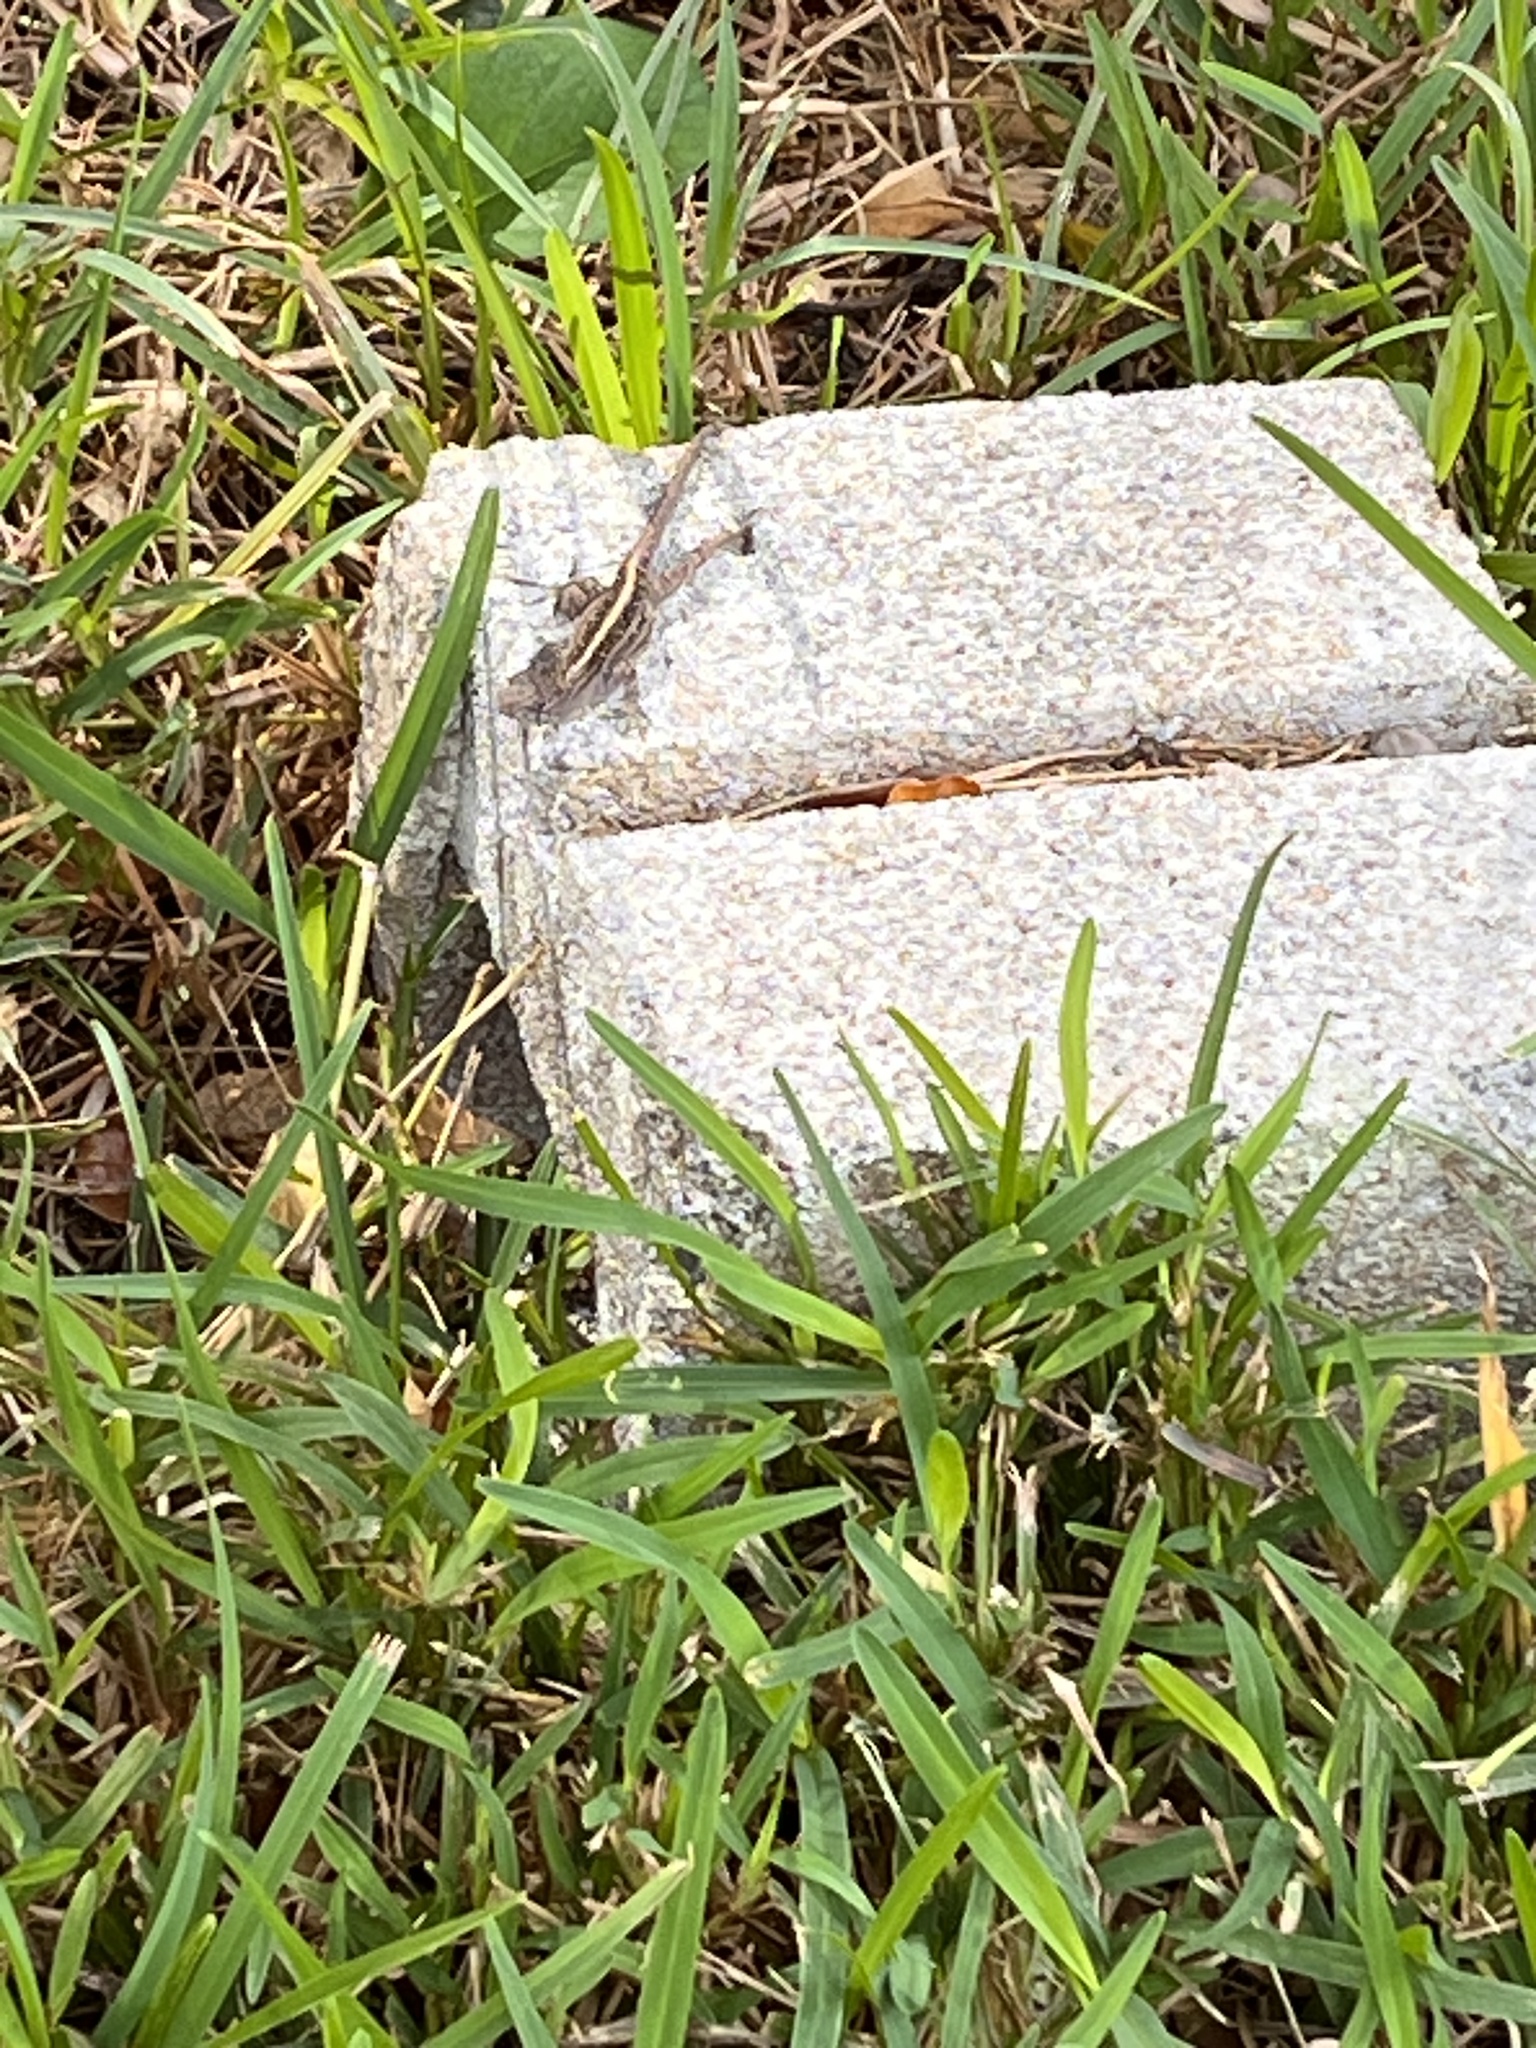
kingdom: Animalia
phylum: Chordata
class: Squamata
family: Dactyloidae
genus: Anolis
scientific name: Anolis sagrei
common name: Brown anole
